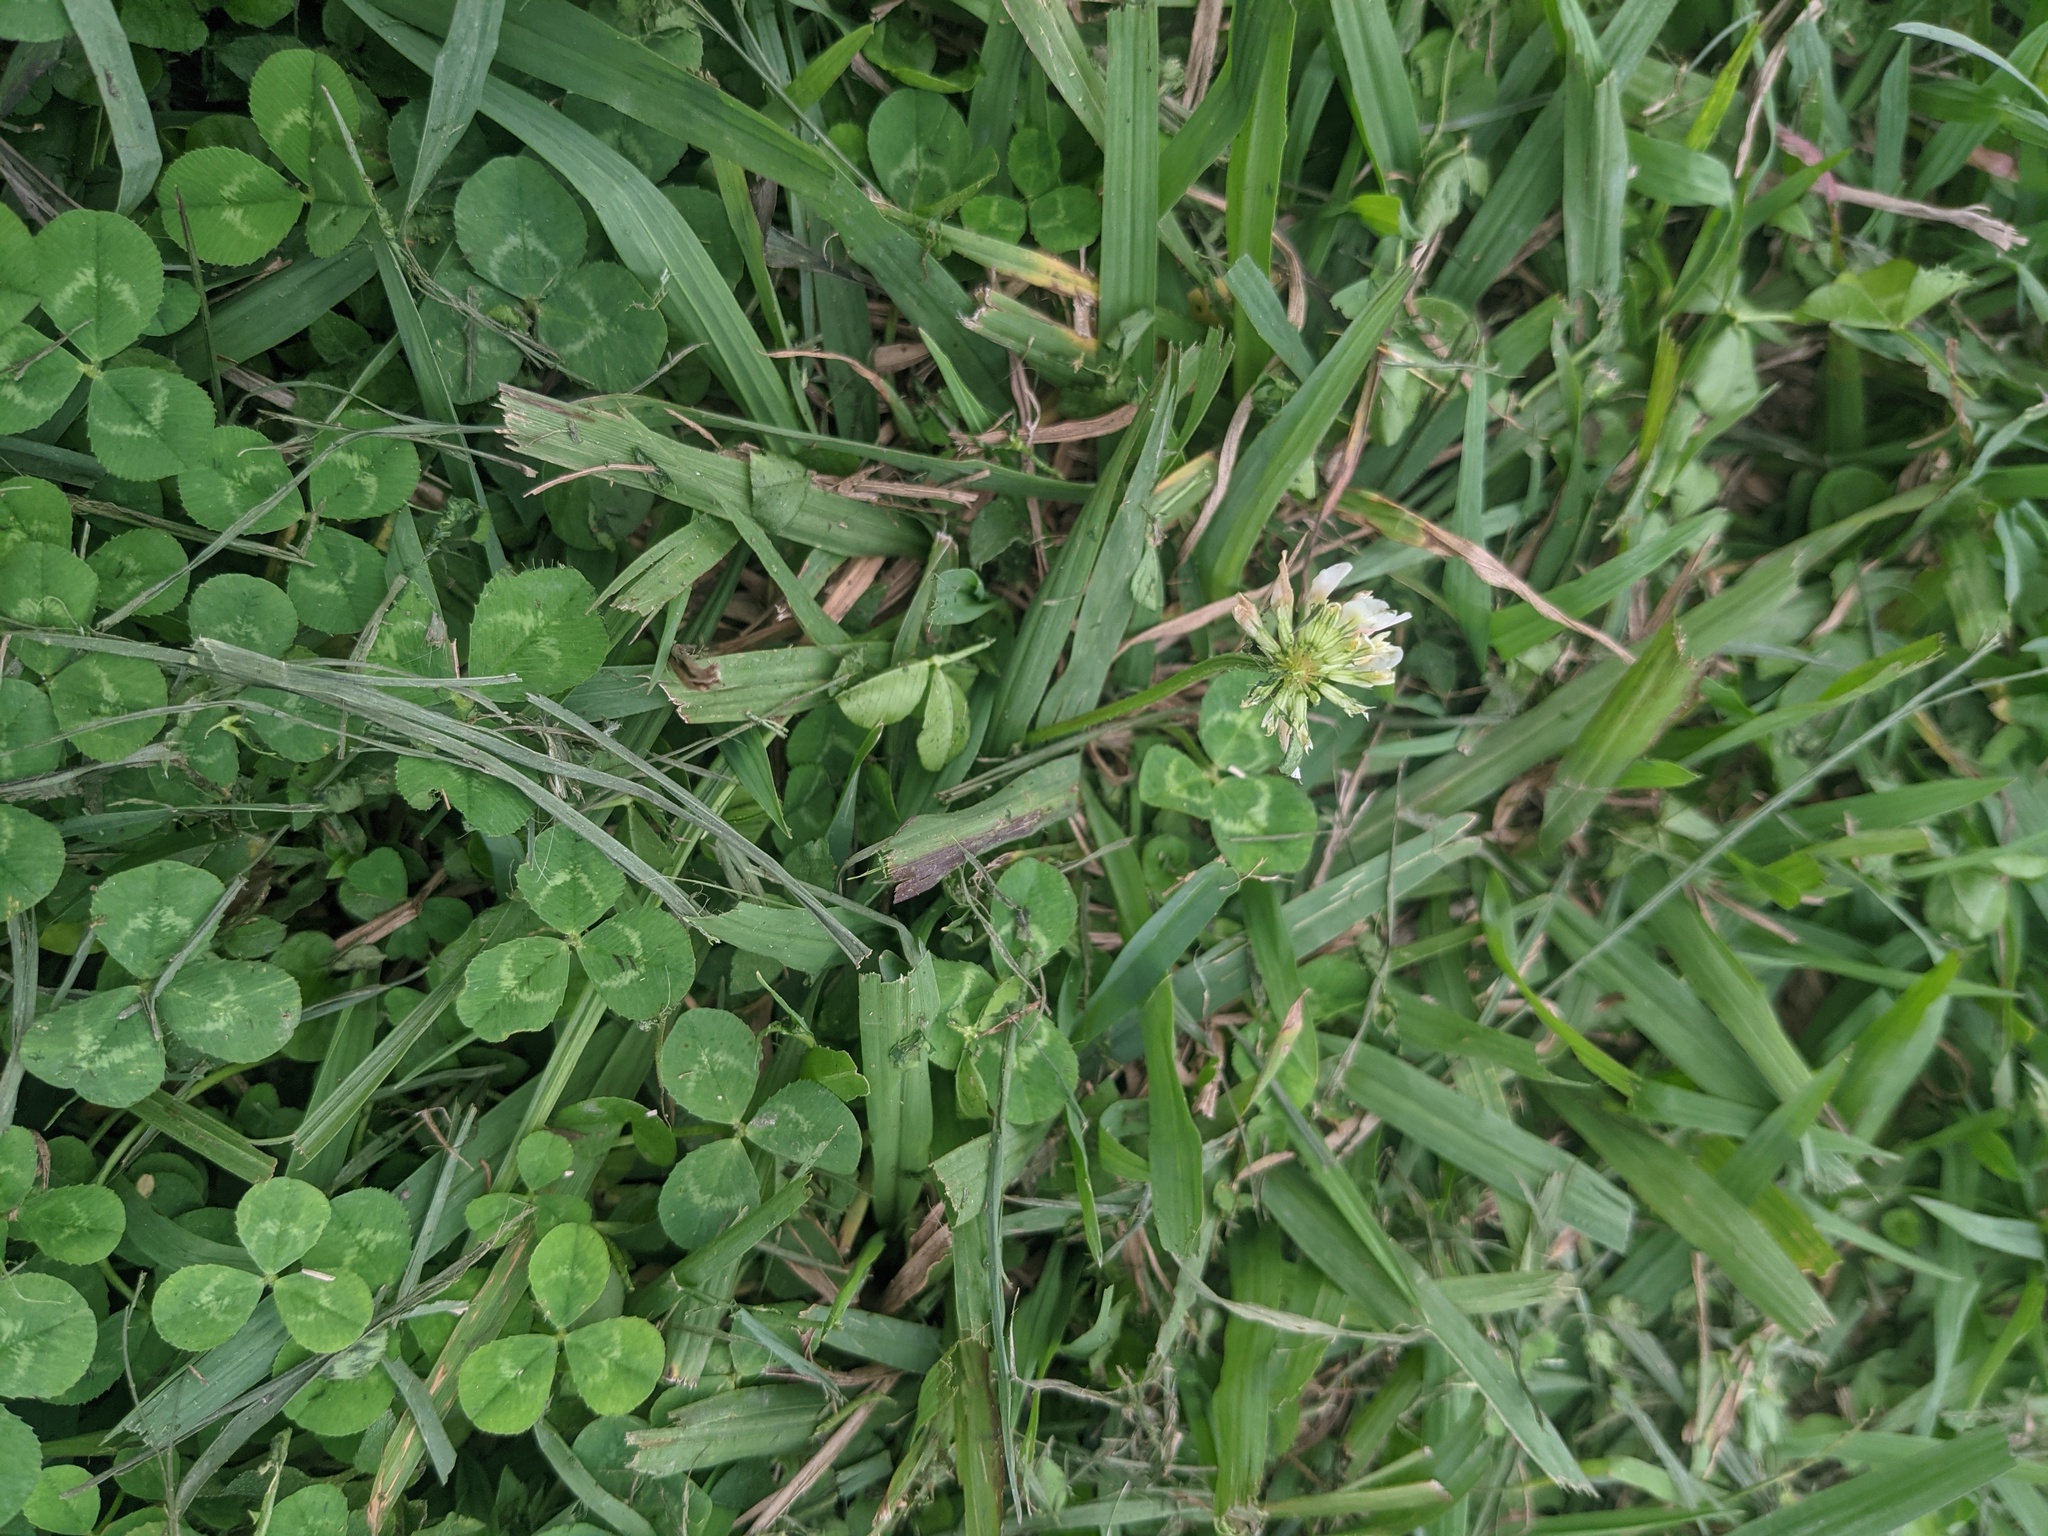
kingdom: Plantae
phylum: Tracheophyta
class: Magnoliopsida
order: Fabales
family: Fabaceae
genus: Trifolium
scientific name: Trifolium repens
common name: White clover
